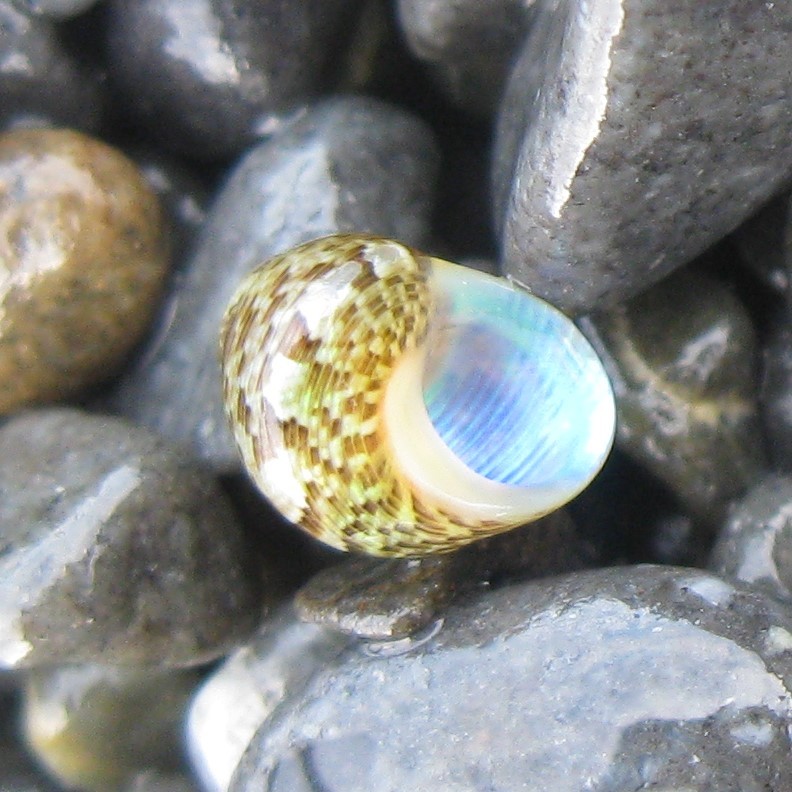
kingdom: Animalia
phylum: Mollusca
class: Gastropoda
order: Trochida
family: Trochidae
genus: Cantharidus
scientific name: Cantharidus dilatatus
